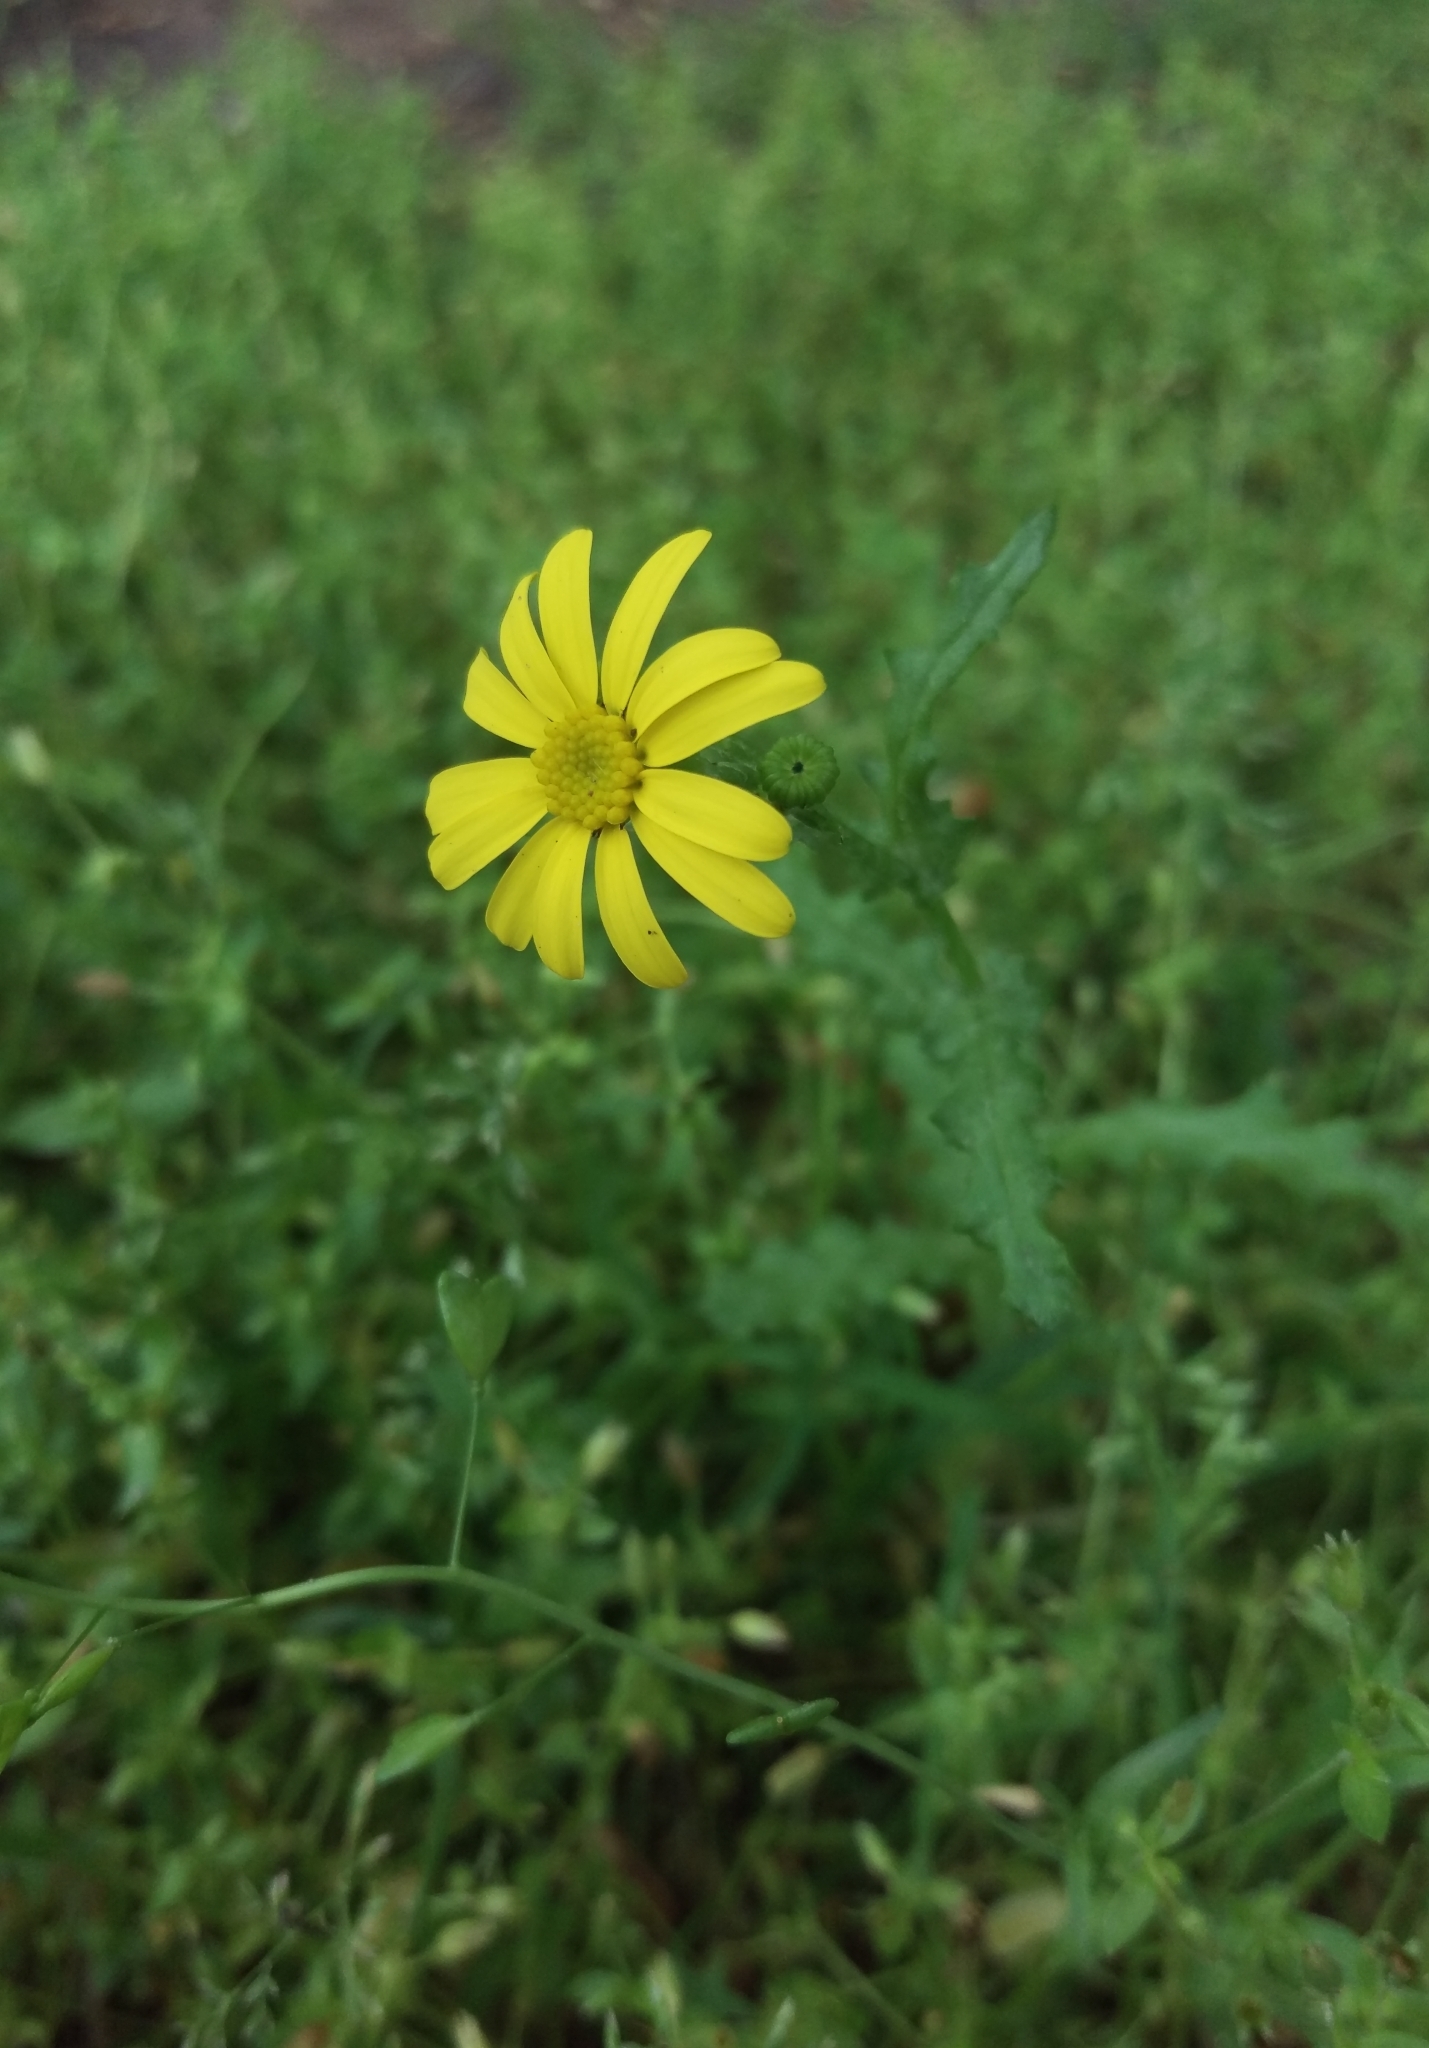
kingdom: Plantae
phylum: Tracheophyta
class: Magnoliopsida
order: Asterales
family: Asteraceae
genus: Senecio
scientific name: Senecio vernalis
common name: Eastern groundsel
